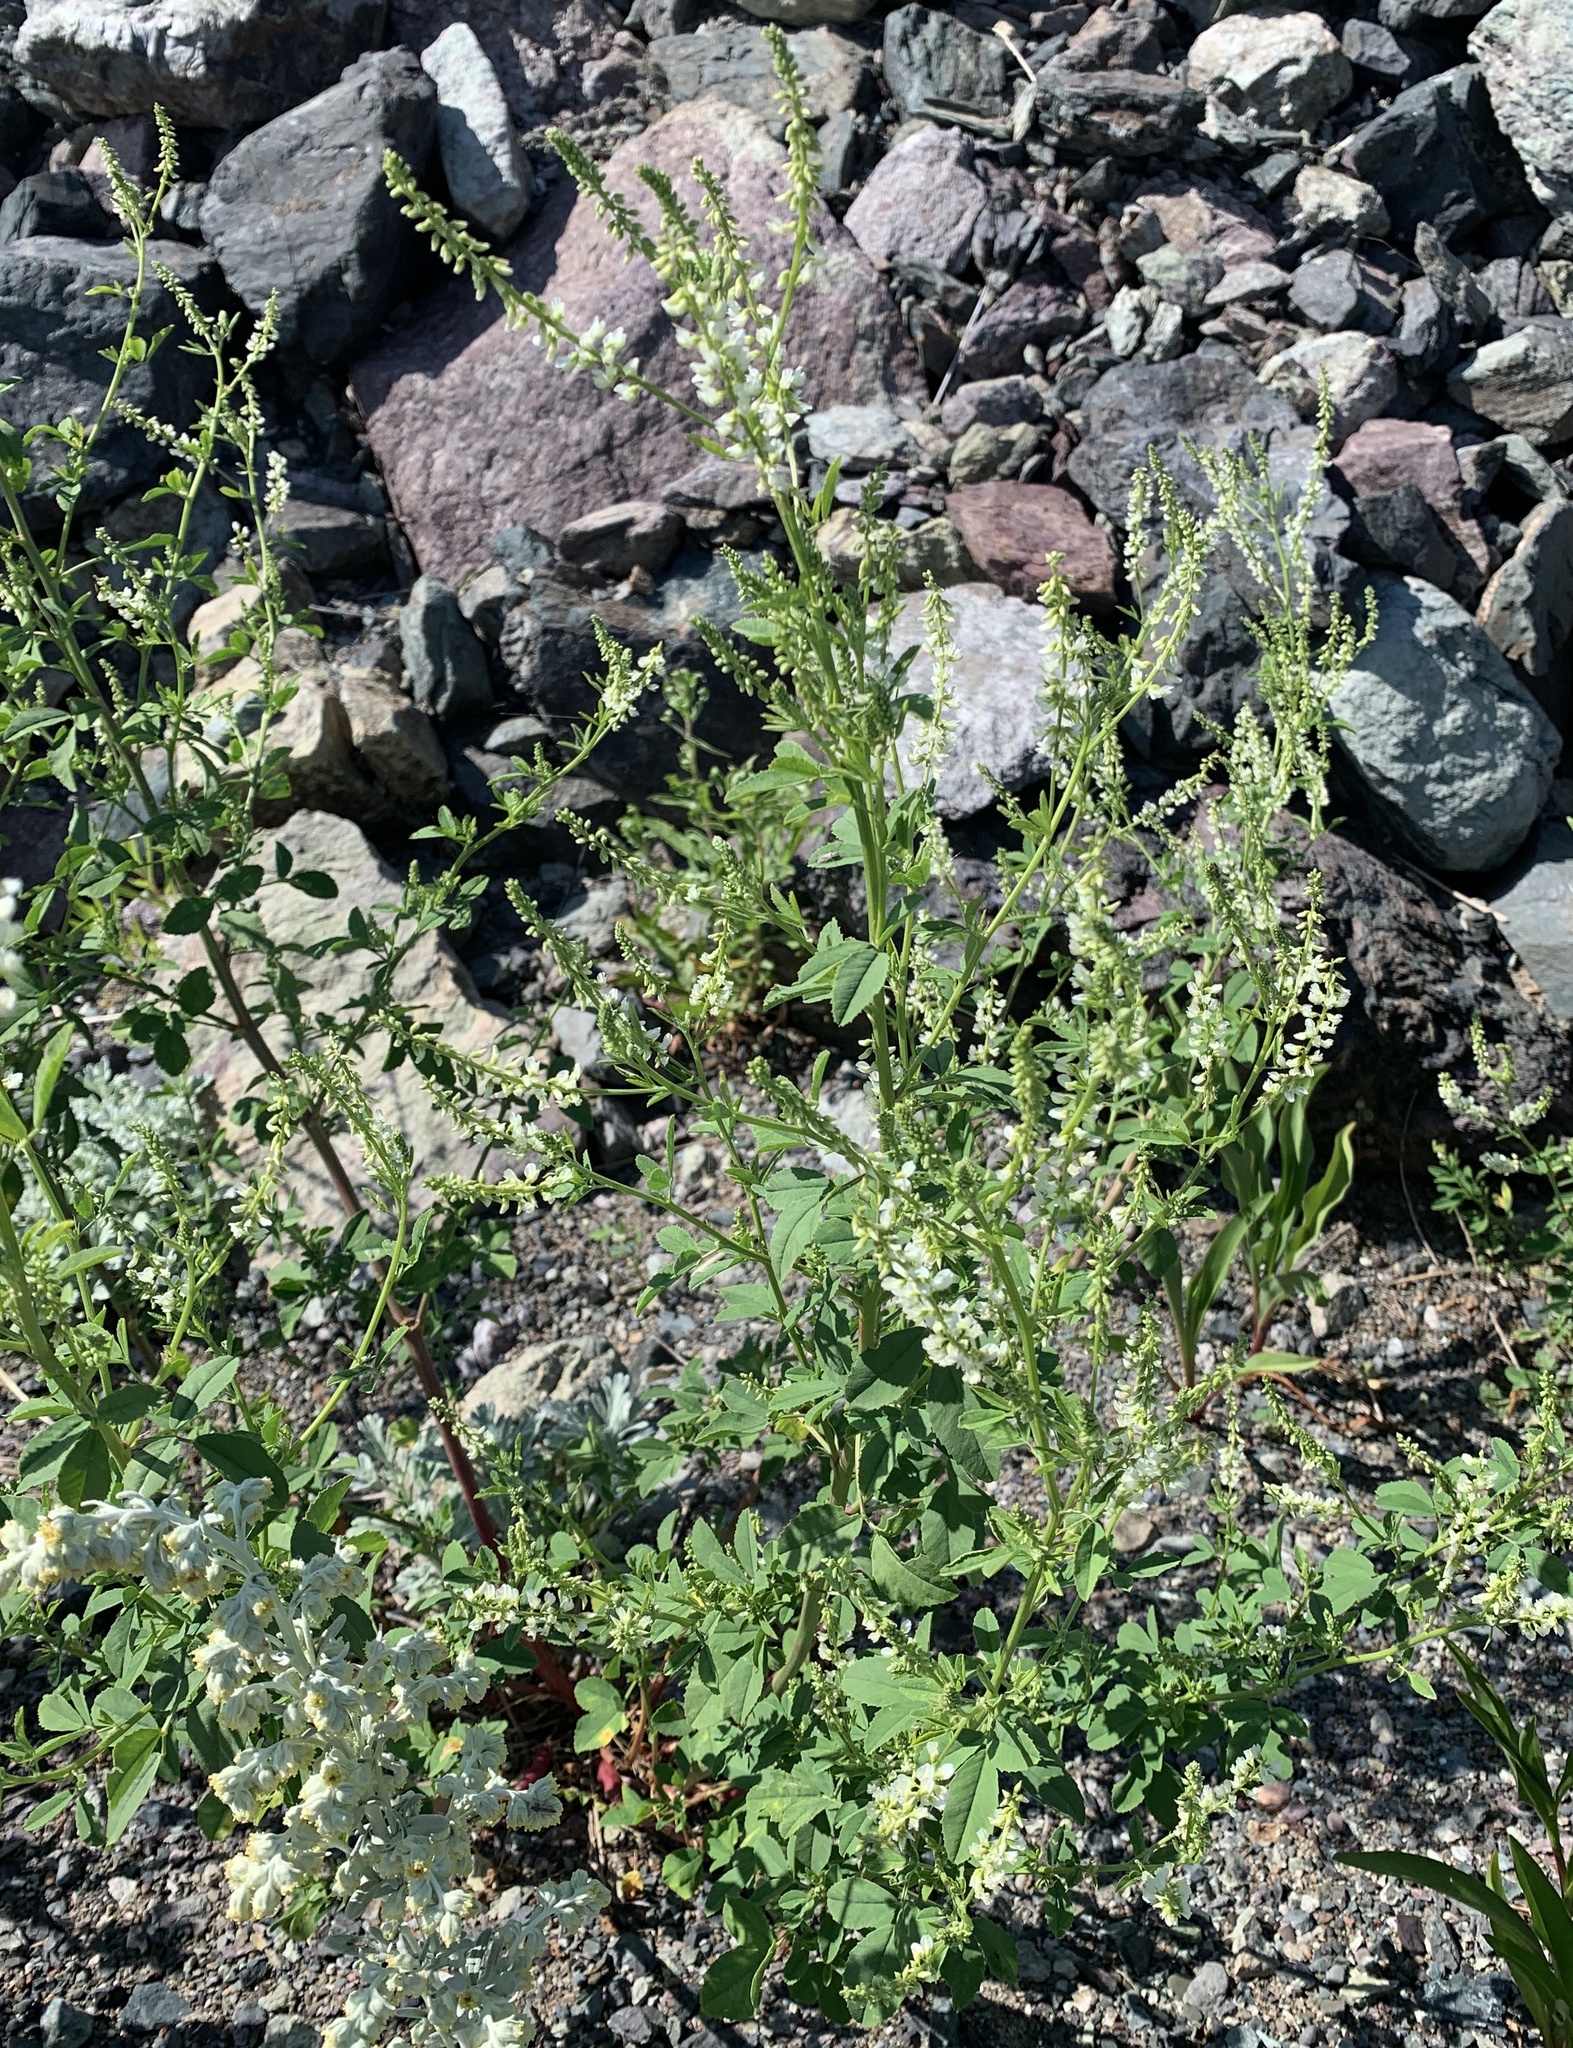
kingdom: Plantae
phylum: Tracheophyta
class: Magnoliopsida
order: Fabales
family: Fabaceae
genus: Melilotus
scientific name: Melilotus albus
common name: White melilot
